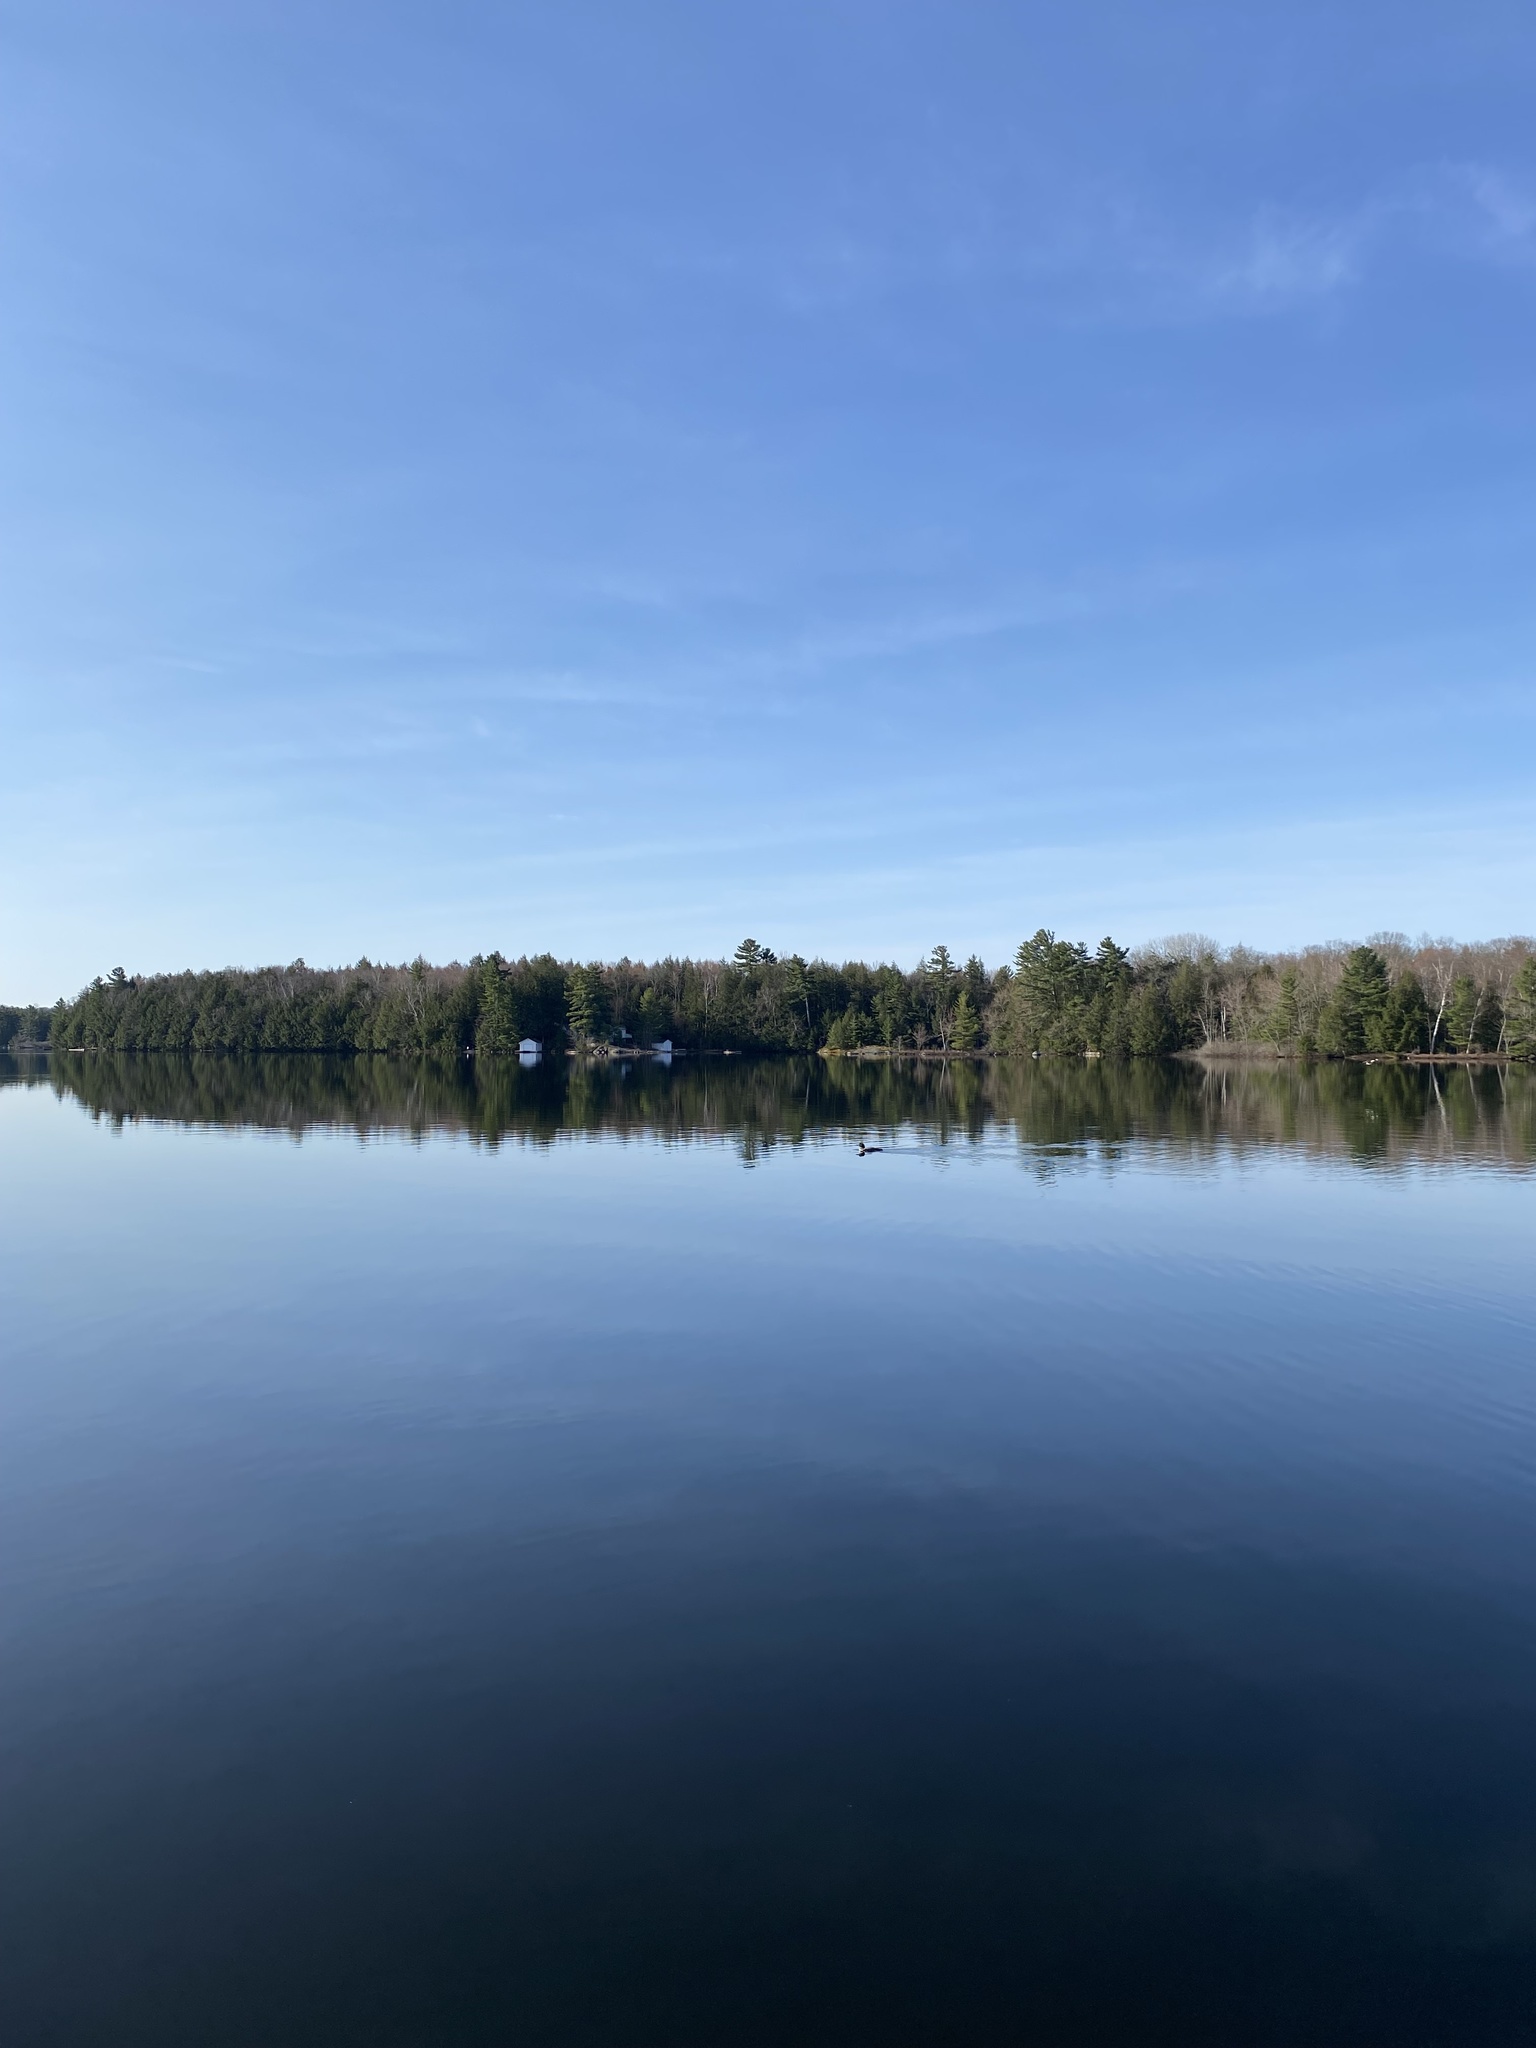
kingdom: Animalia
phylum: Chordata
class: Aves
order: Gaviiformes
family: Gaviidae
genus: Gavia
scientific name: Gavia immer
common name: Common loon
